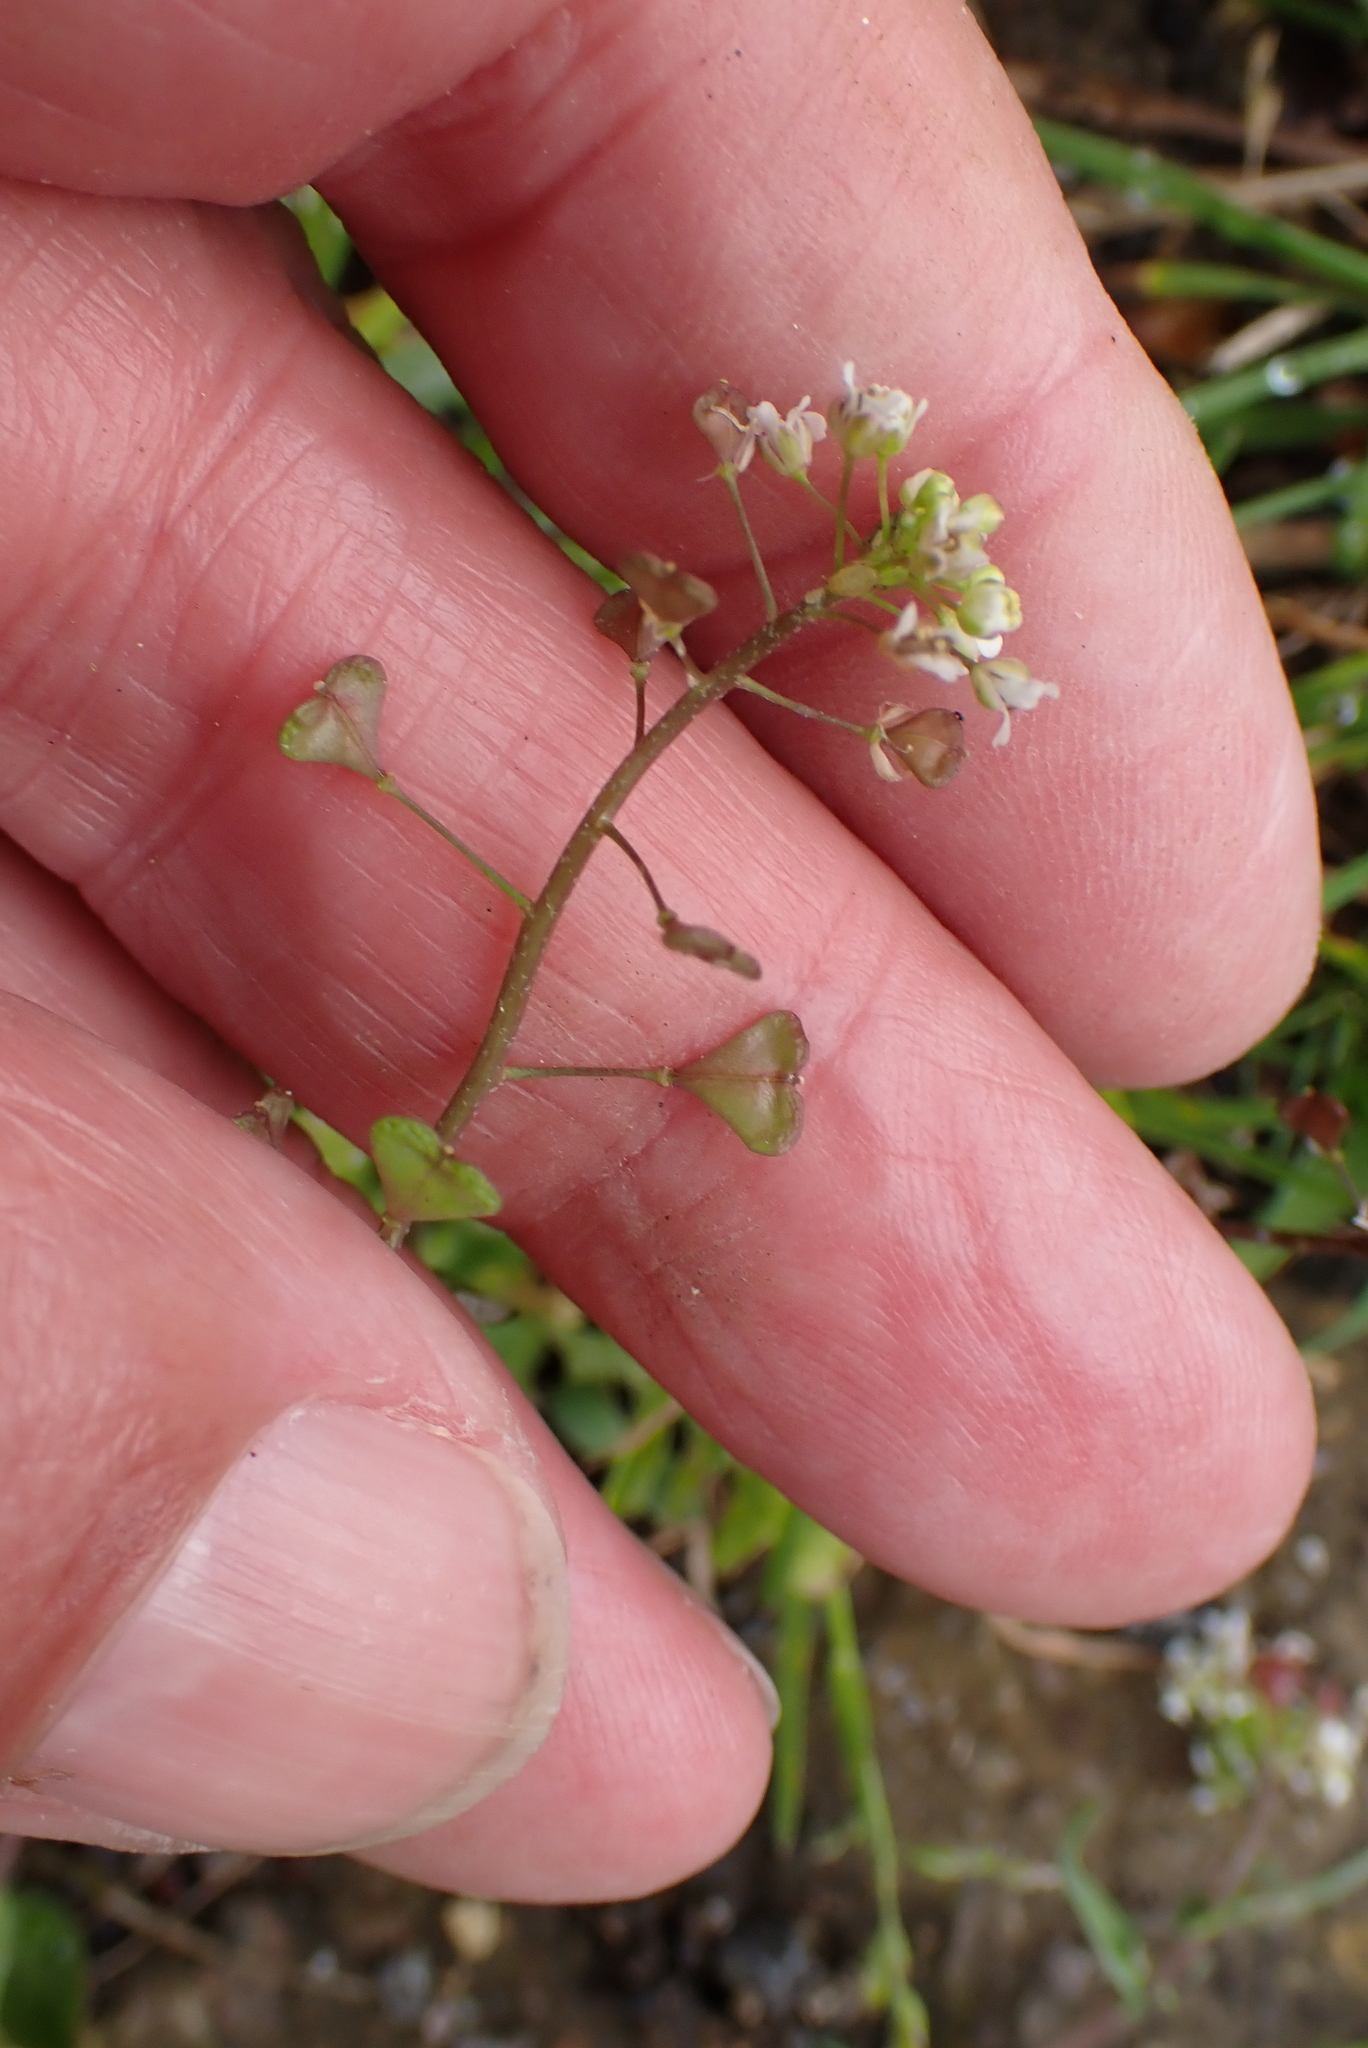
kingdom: Plantae
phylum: Tracheophyta
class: Magnoliopsida
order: Brassicales
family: Brassicaceae
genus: Capsella
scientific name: Capsella bursa-pastoris
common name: Shepherd's purse
